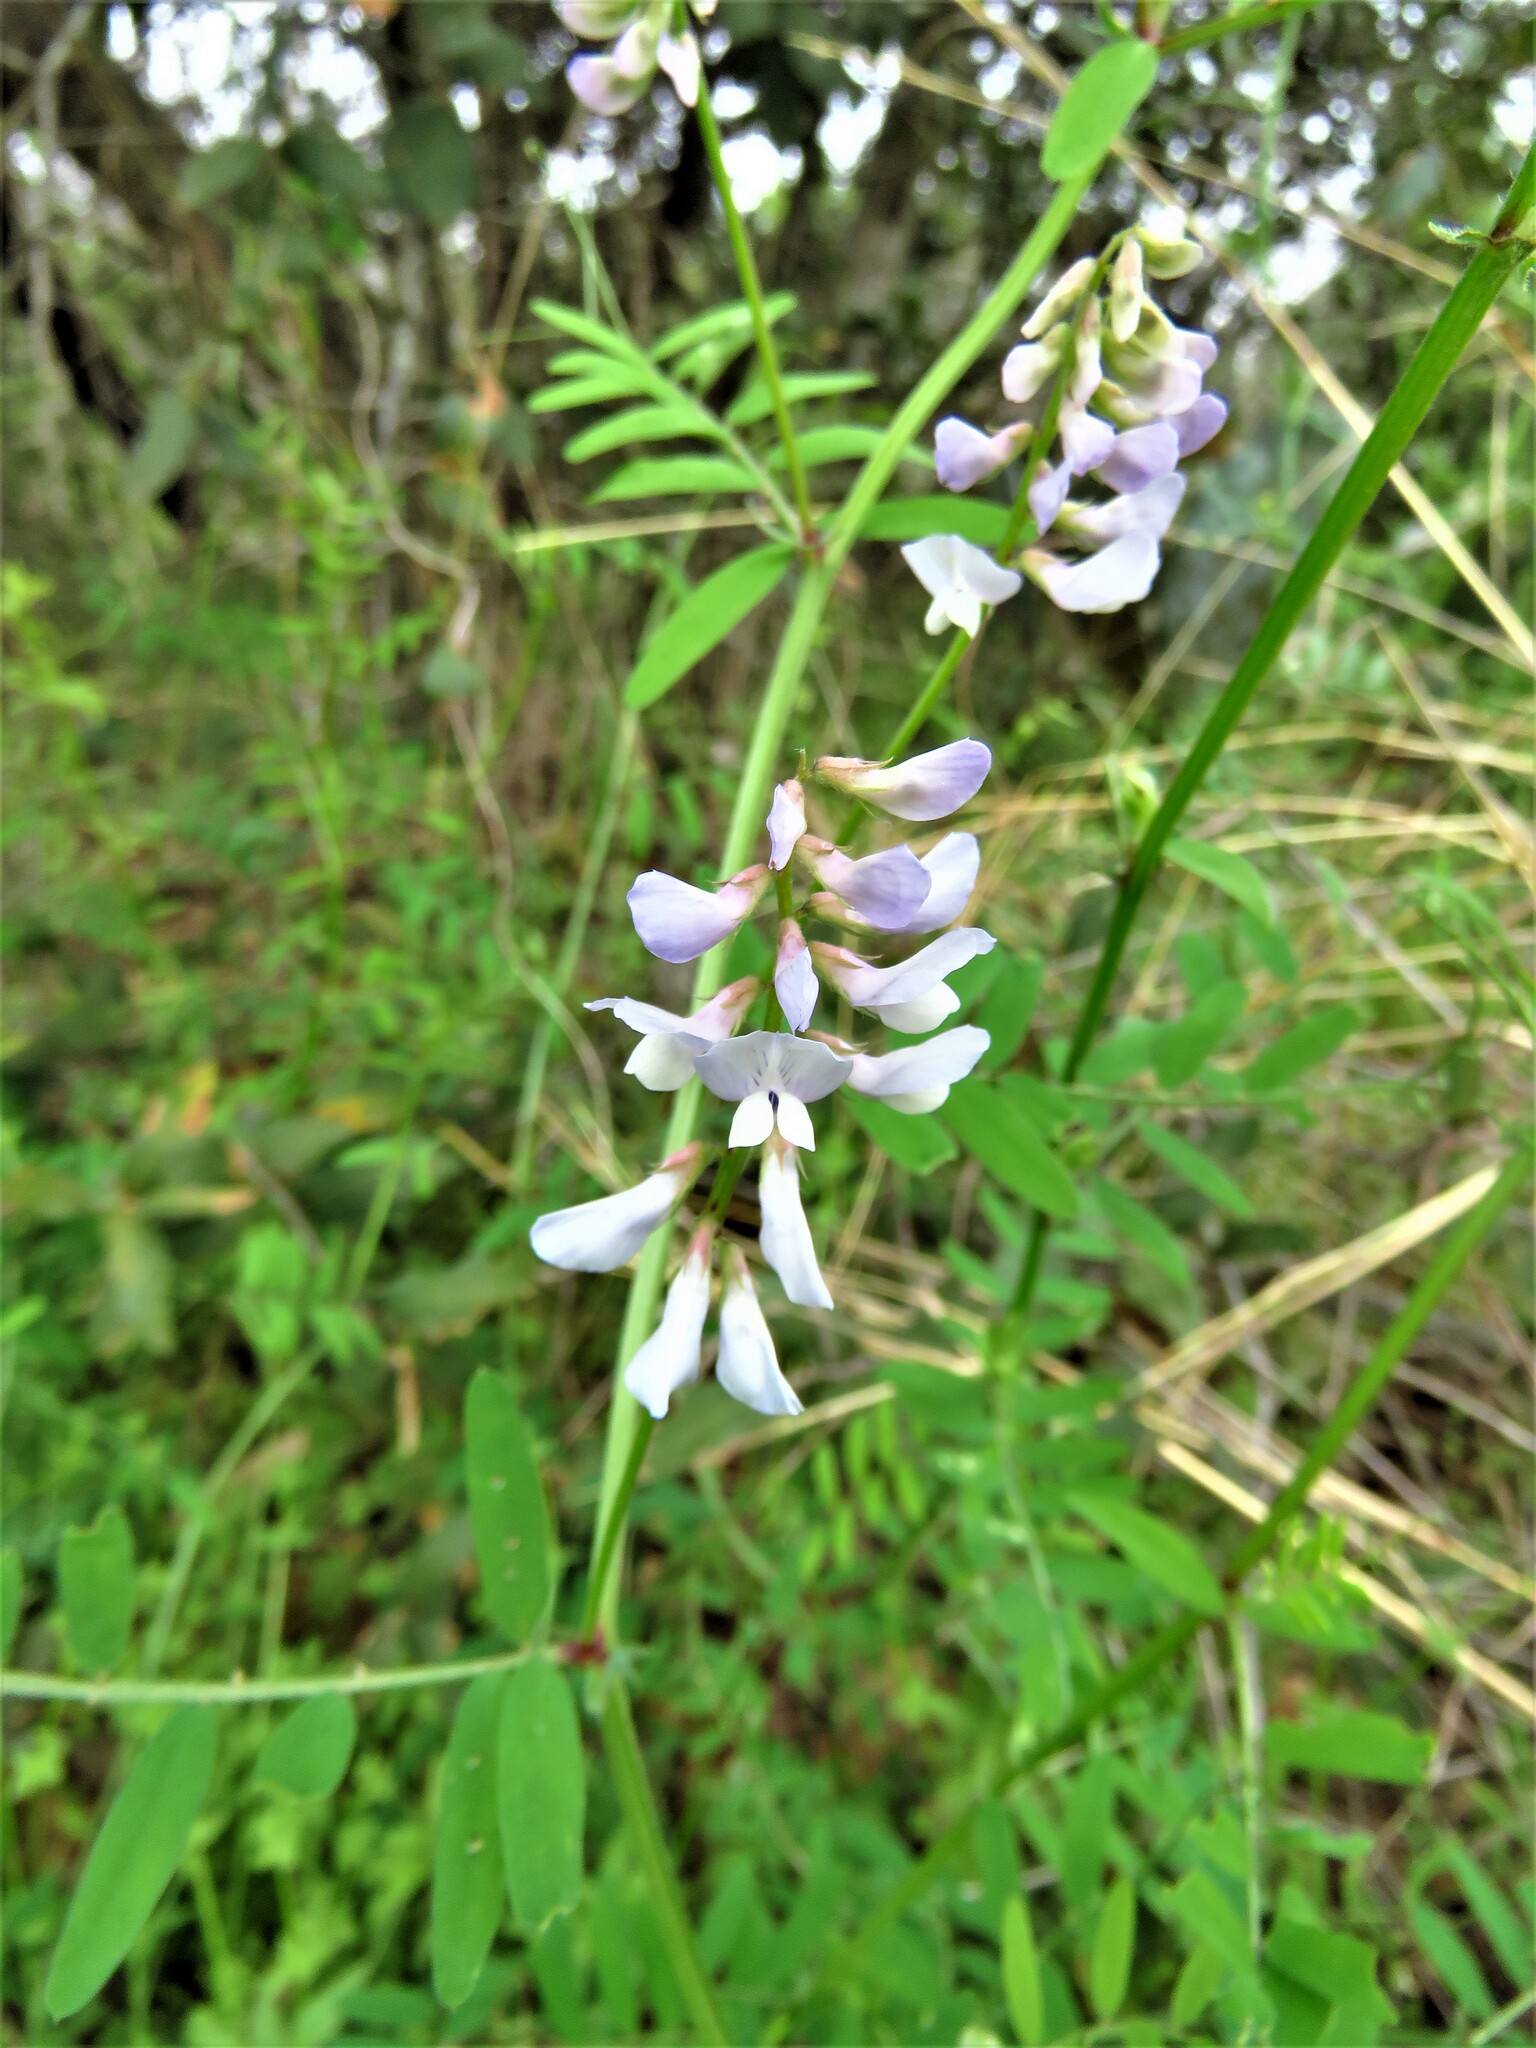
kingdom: Plantae
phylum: Tracheophyta
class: Magnoliopsida
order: Fabales
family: Fabaceae
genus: Vicia
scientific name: Vicia ludoviciana
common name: Louisiana vetch
